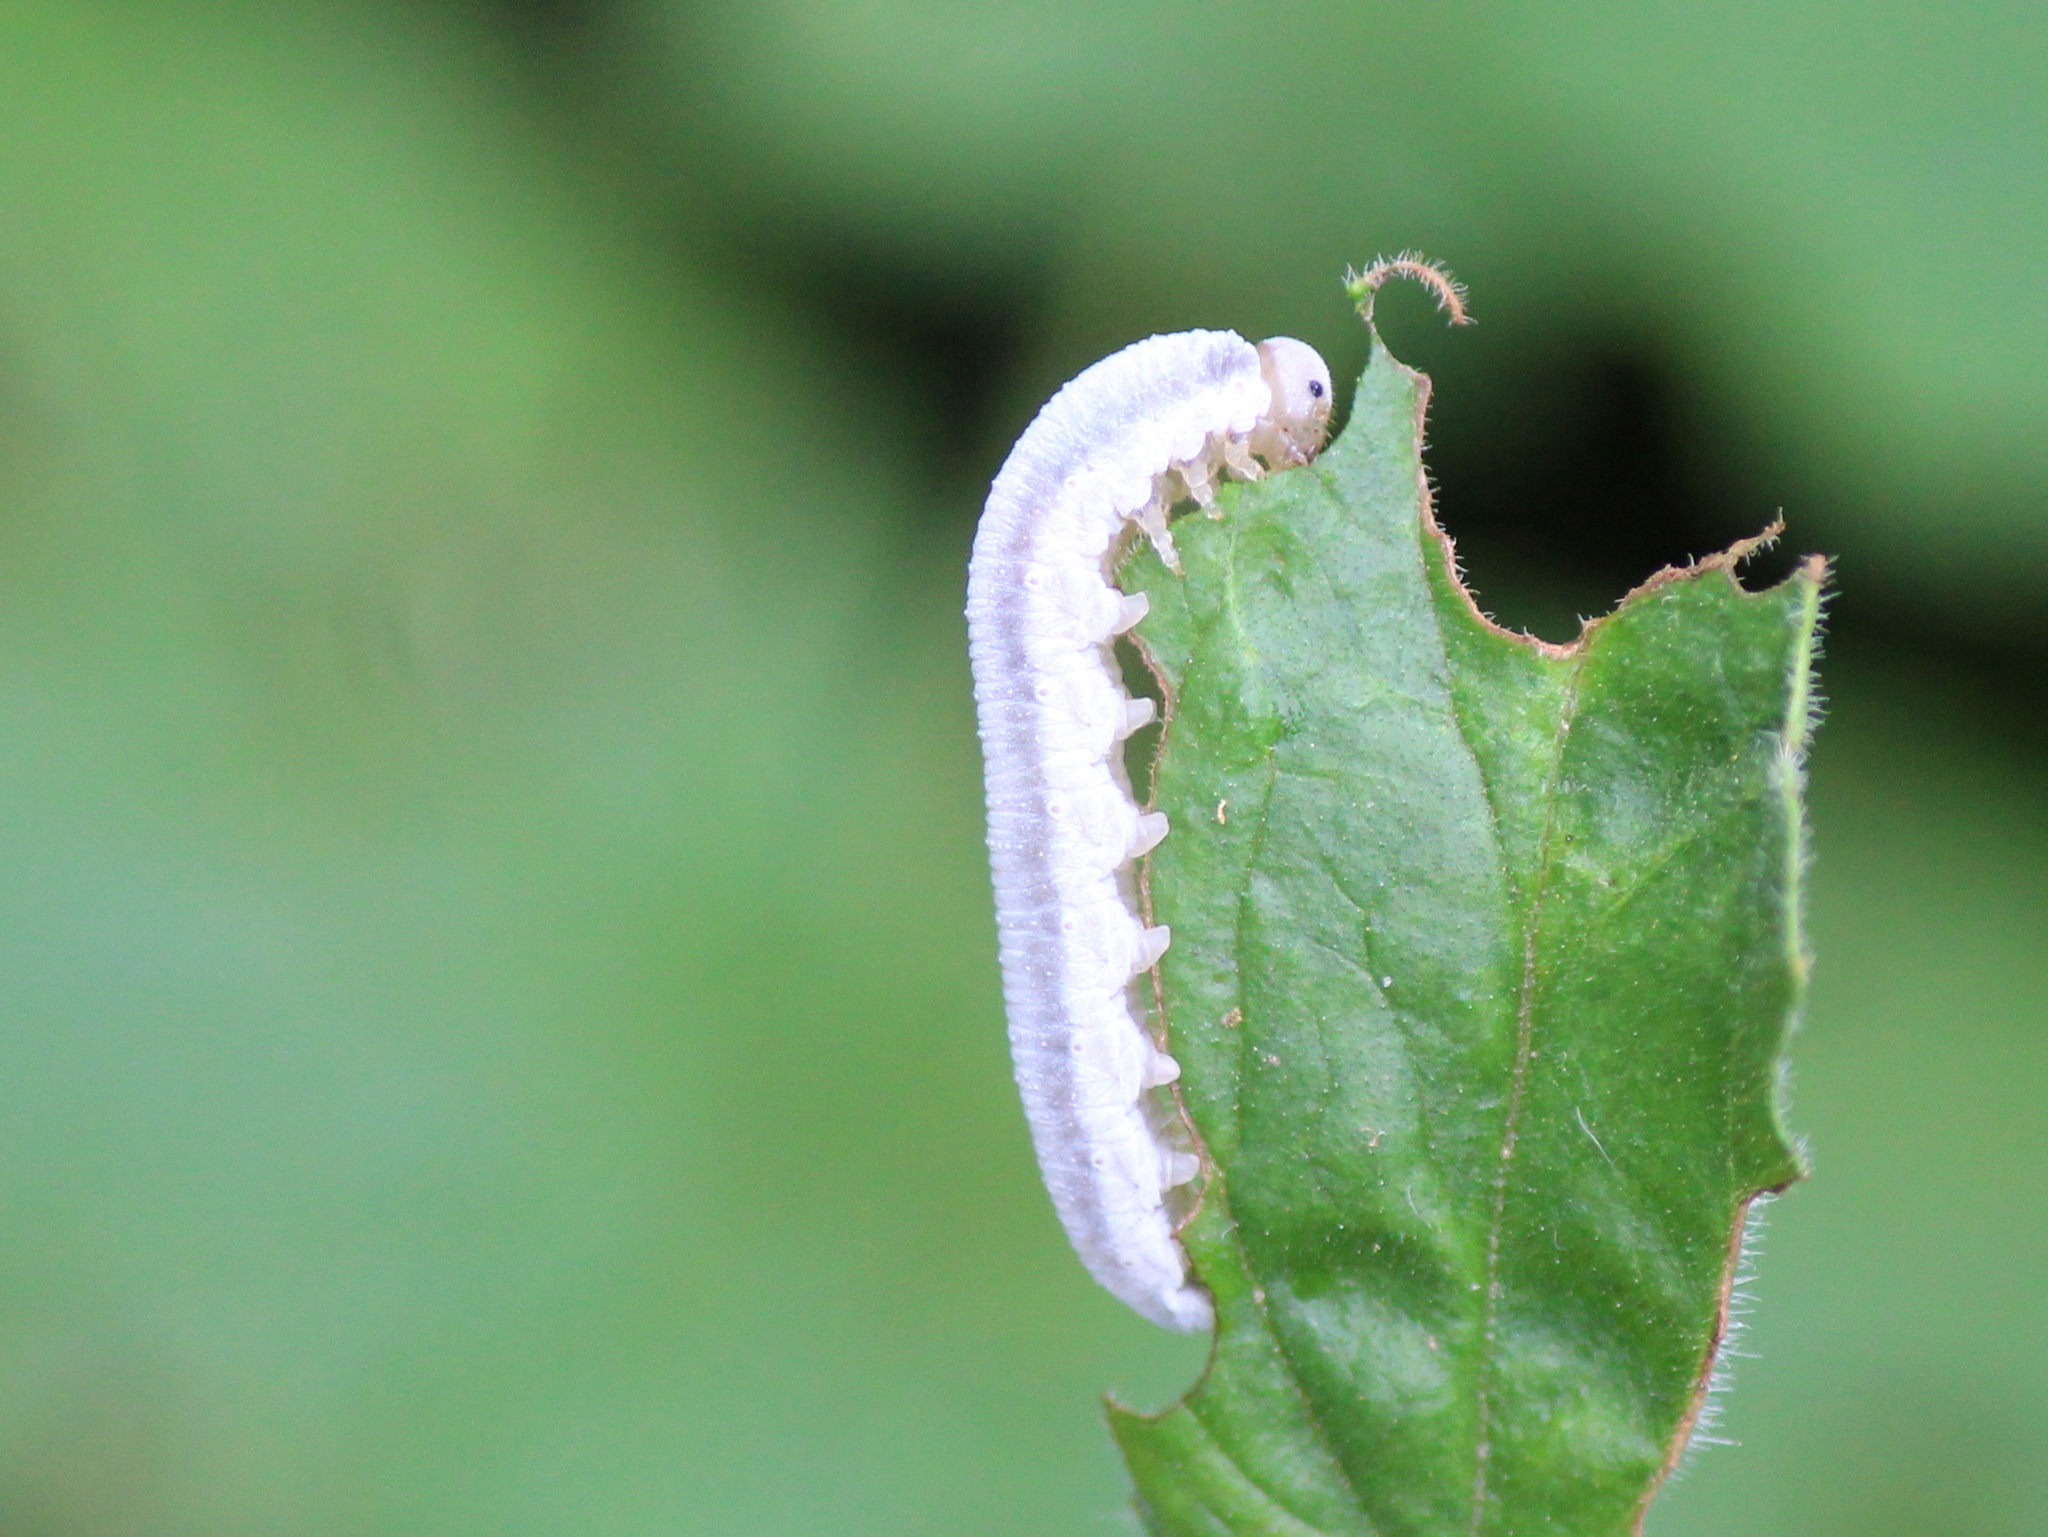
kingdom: Animalia
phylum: Arthropoda
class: Insecta
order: Hymenoptera
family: Tenthredinidae
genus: Monostegia
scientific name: Monostegia abdominalis
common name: Tenthredid wasp
